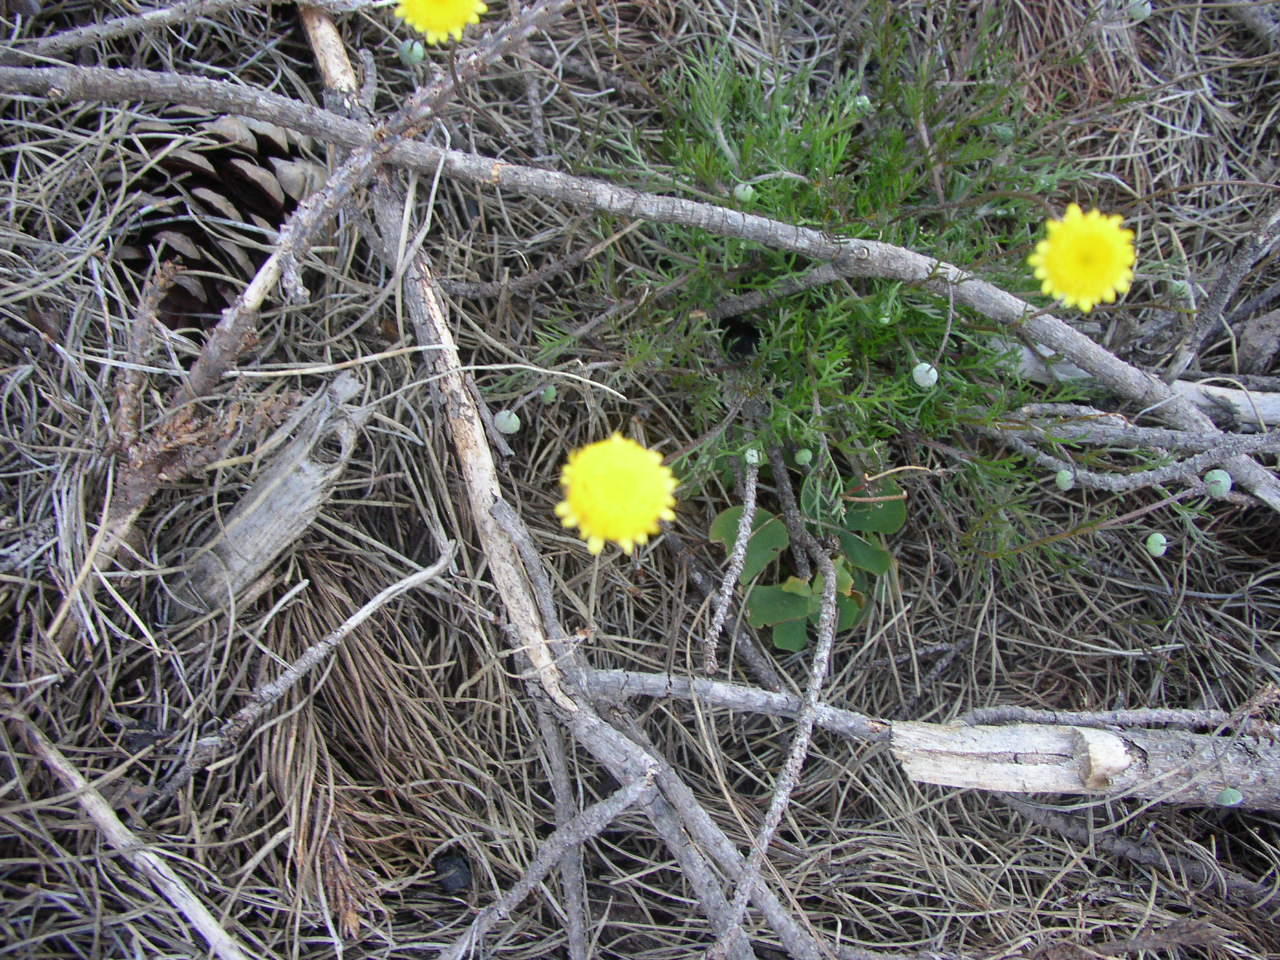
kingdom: Plantae
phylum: Tracheophyta
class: Magnoliopsida
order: Asterales
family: Asteraceae
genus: Cotula
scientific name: Cotula pruinosa
